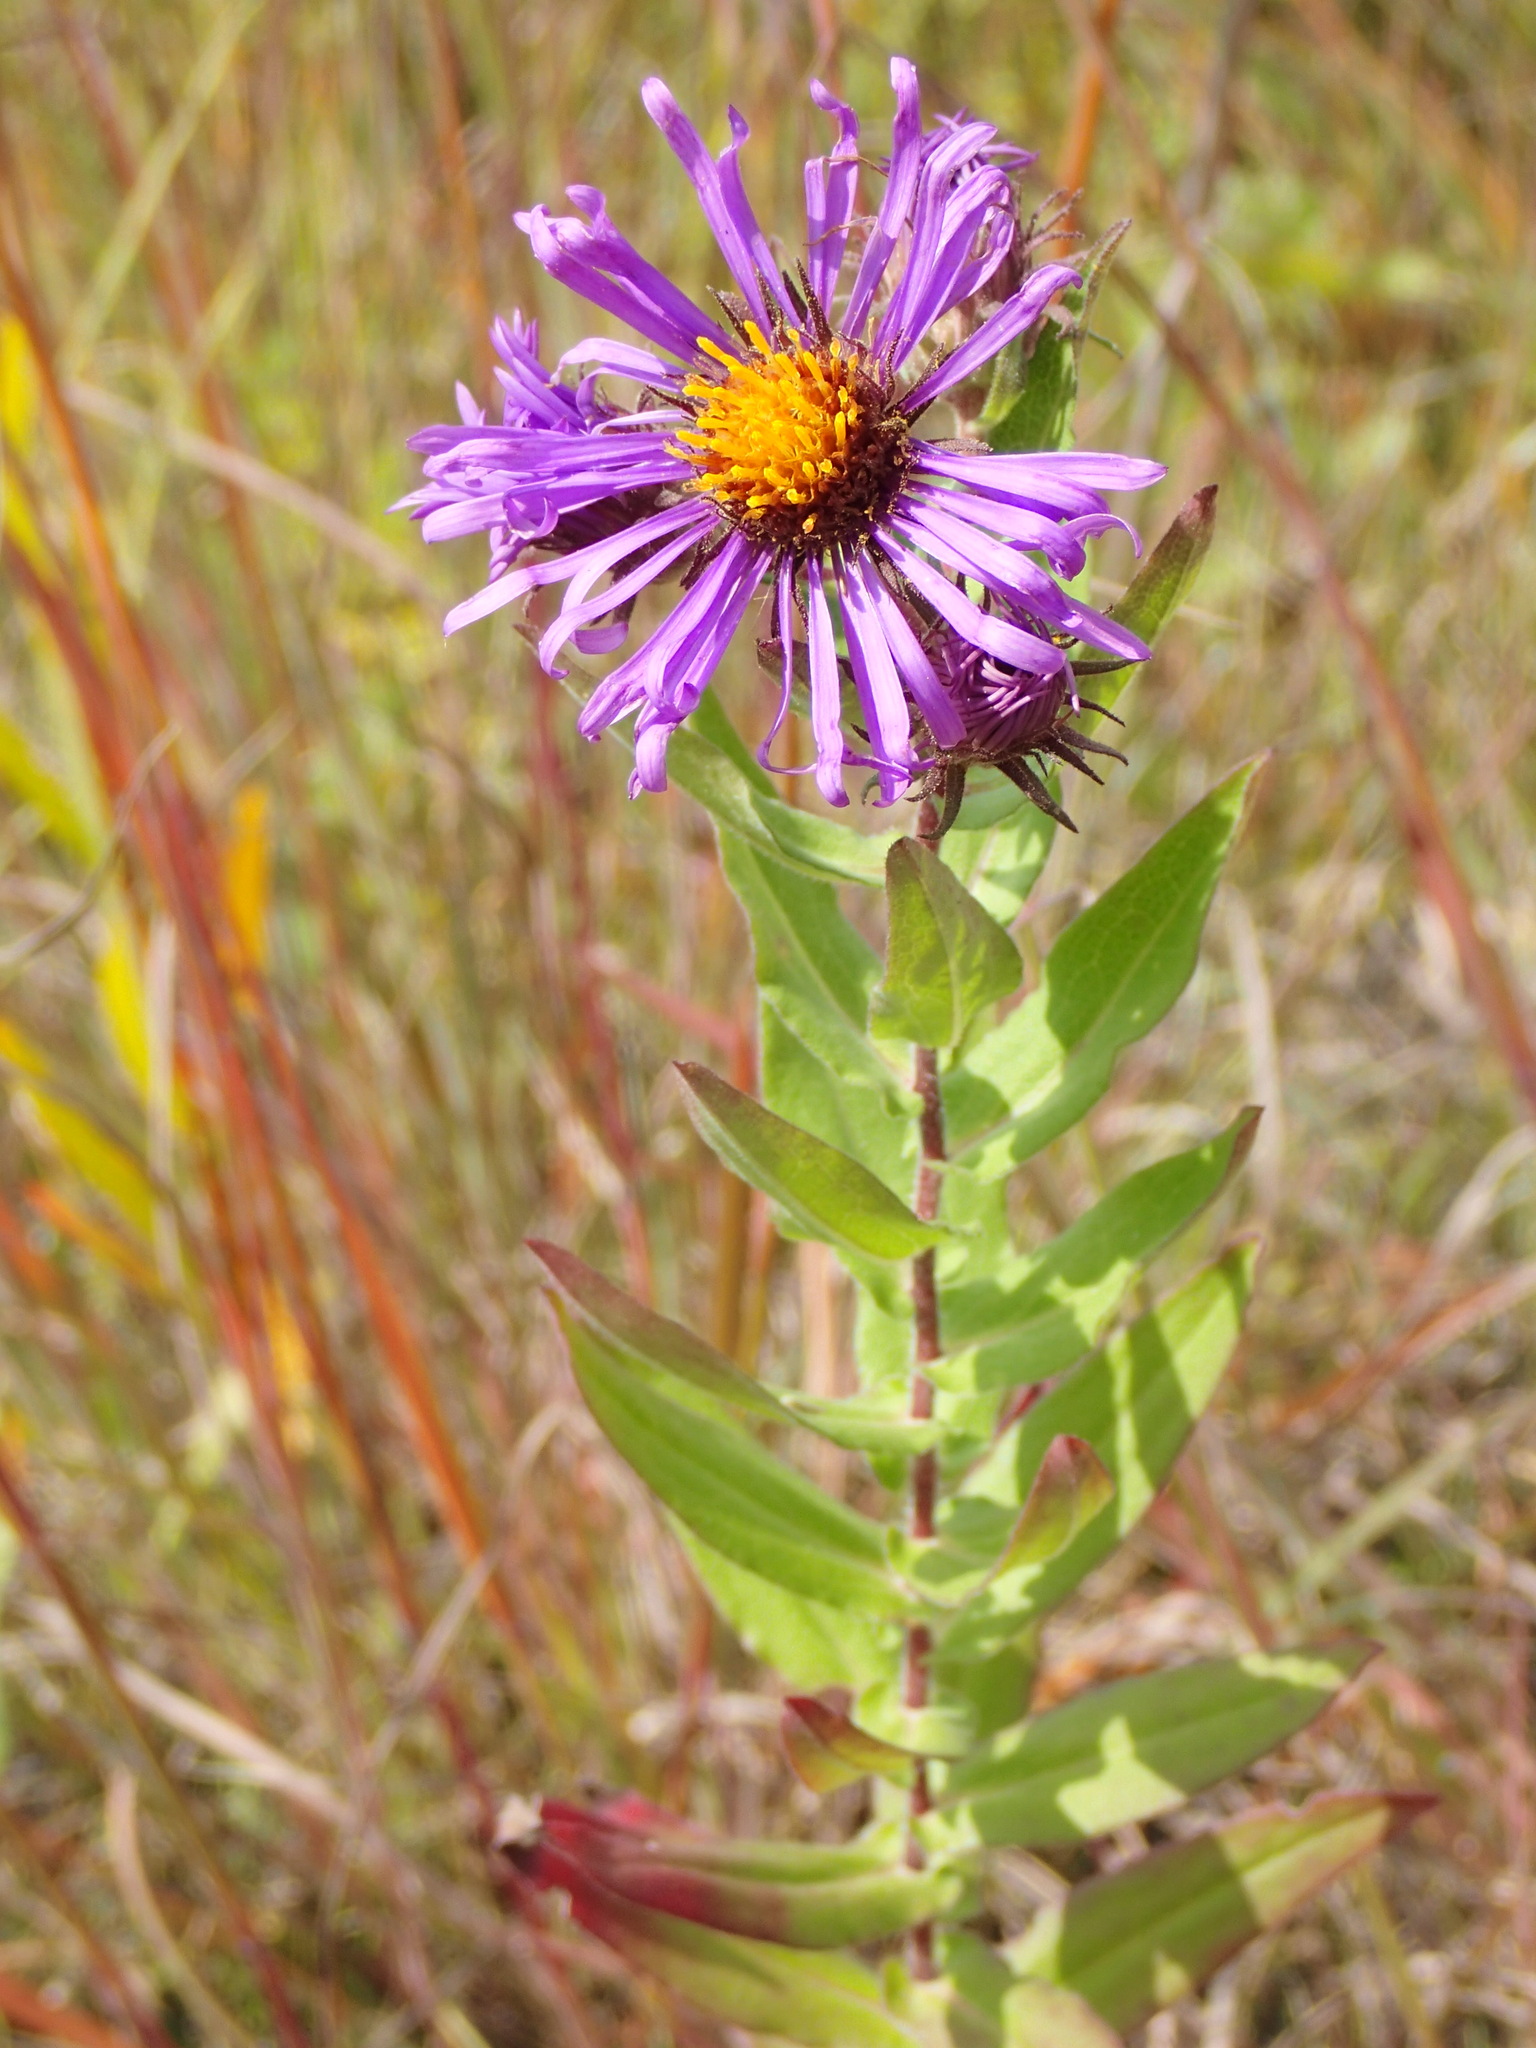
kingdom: Plantae
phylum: Tracheophyta
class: Magnoliopsida
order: Asterales
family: Asteraceae
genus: Symphyotrichum
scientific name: Symphyotrichum novae-angliae
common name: Michaelmas daisy
